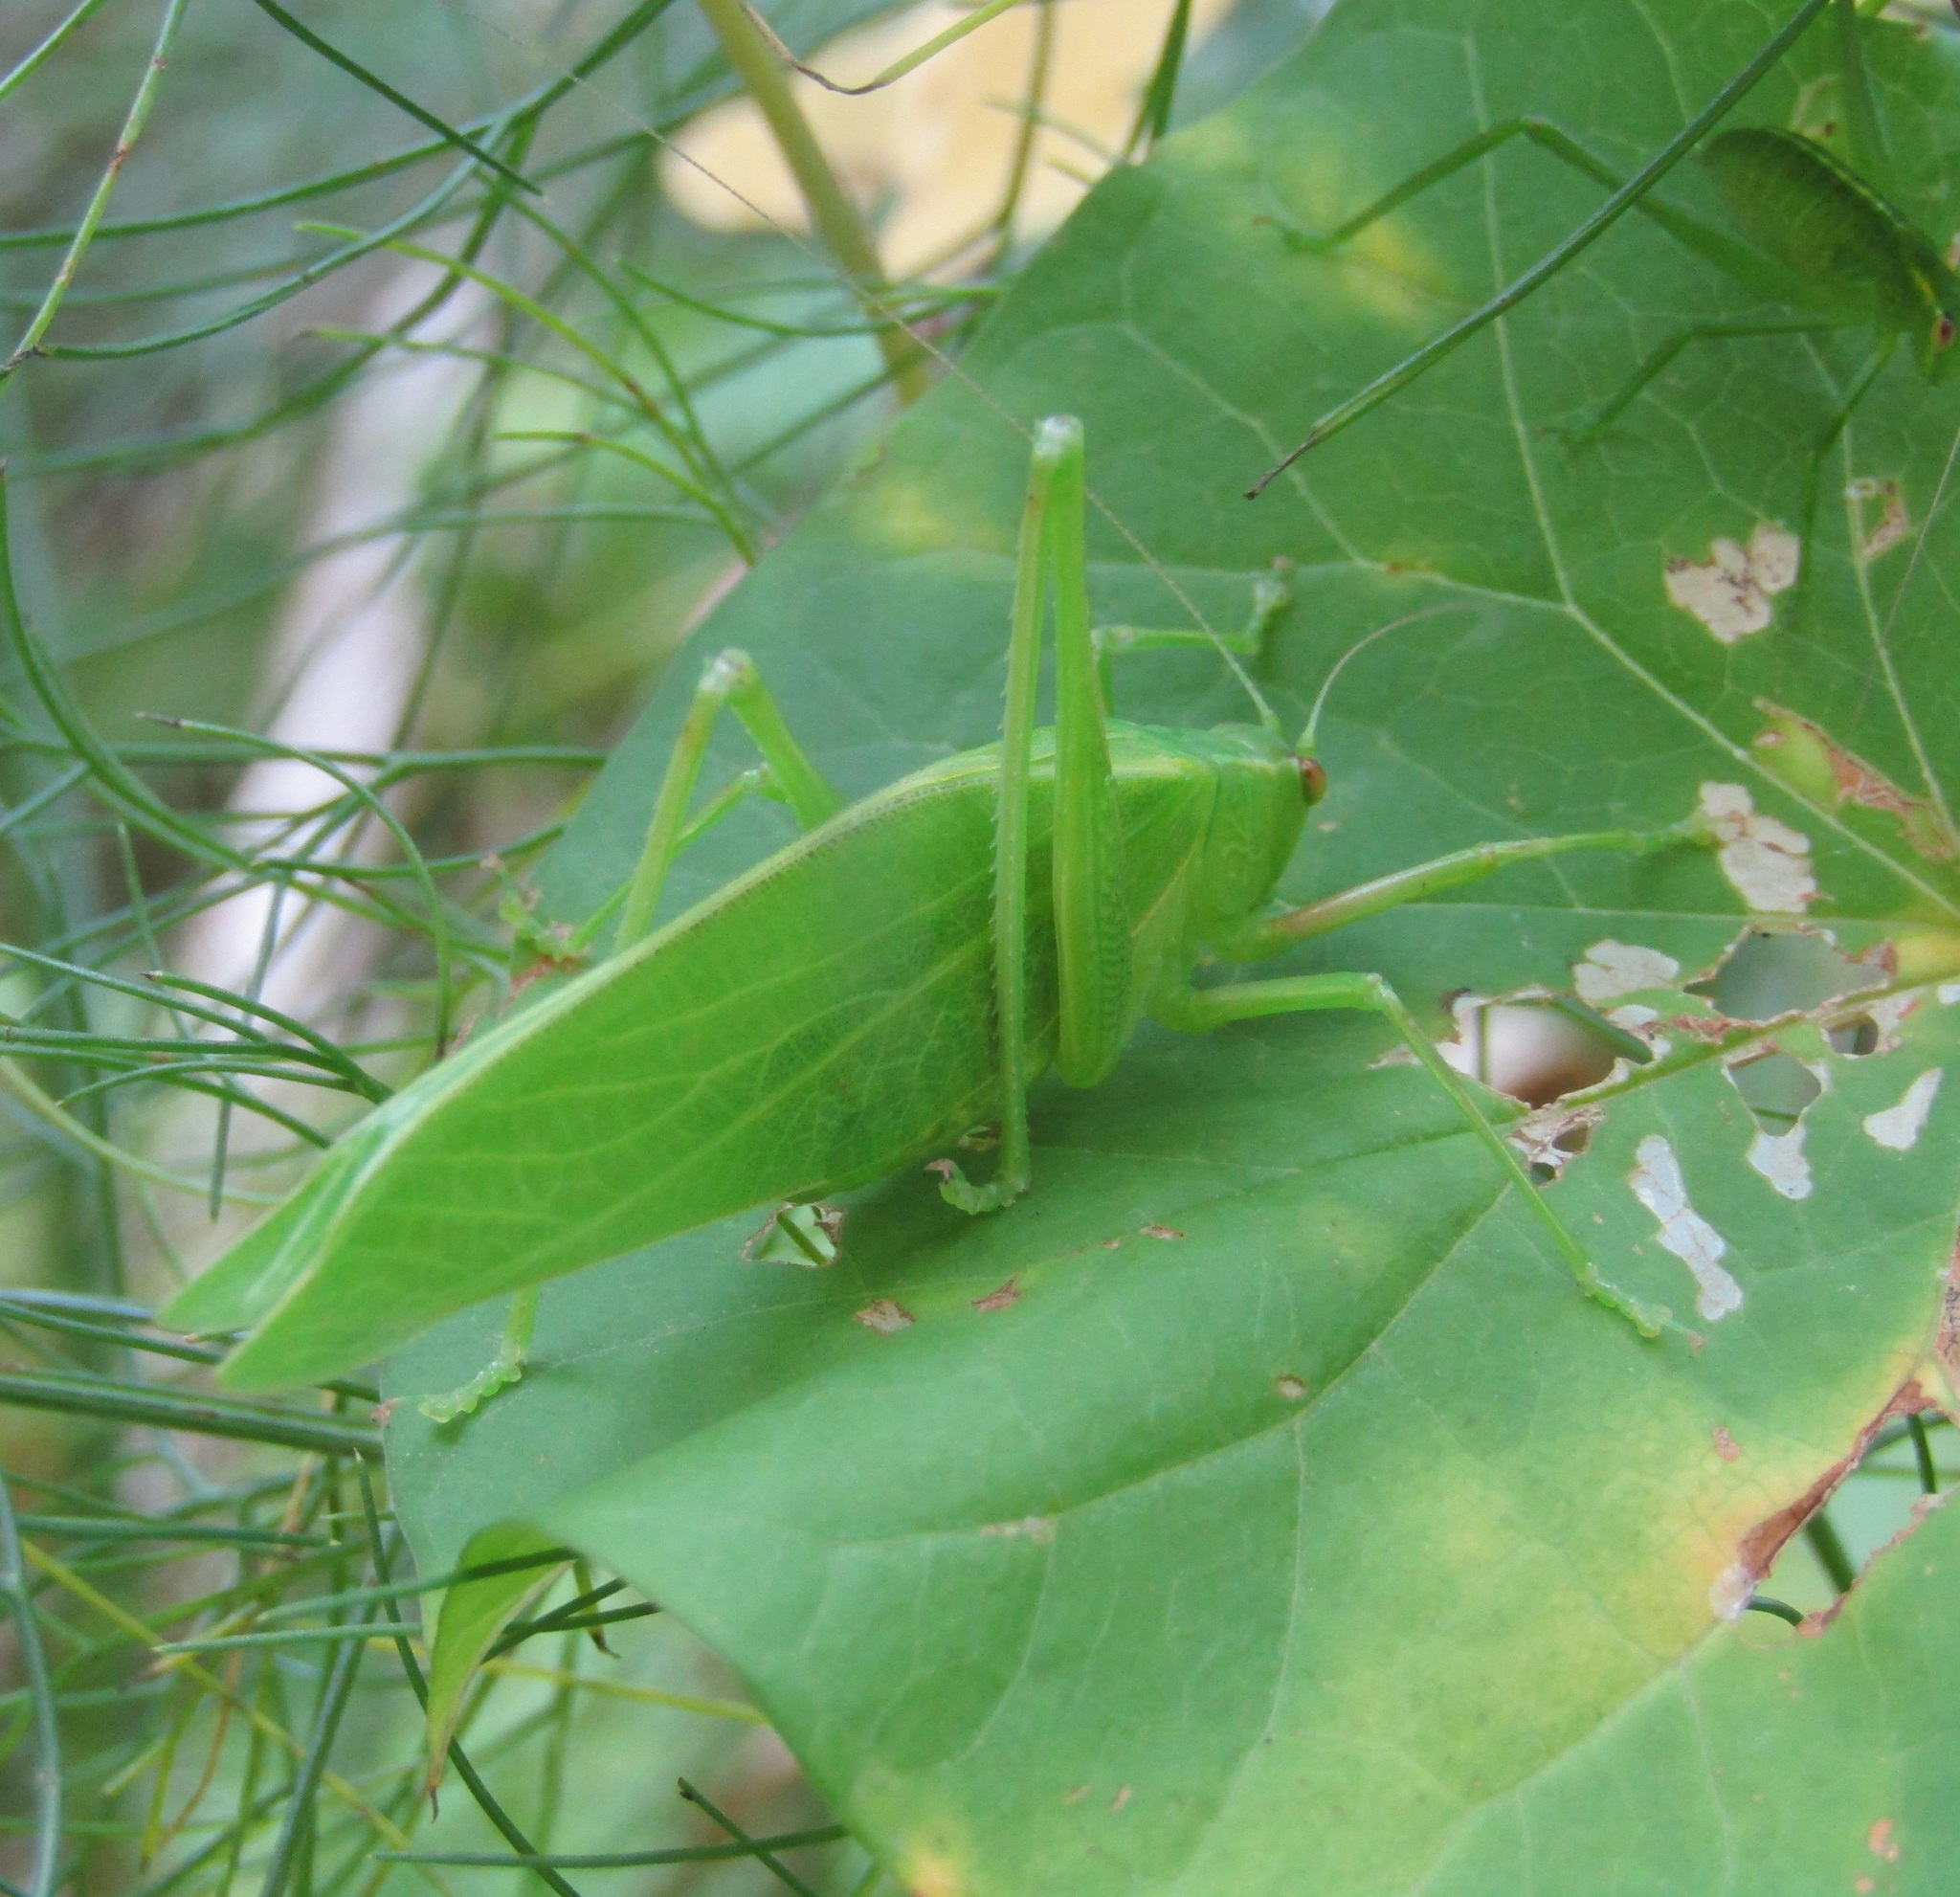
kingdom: Animalia
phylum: Arthropoda
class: Insecta
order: Orthoptera
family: Tettigoniidae
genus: Caedicia
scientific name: Caedicia simplex
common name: Common garden katydid
